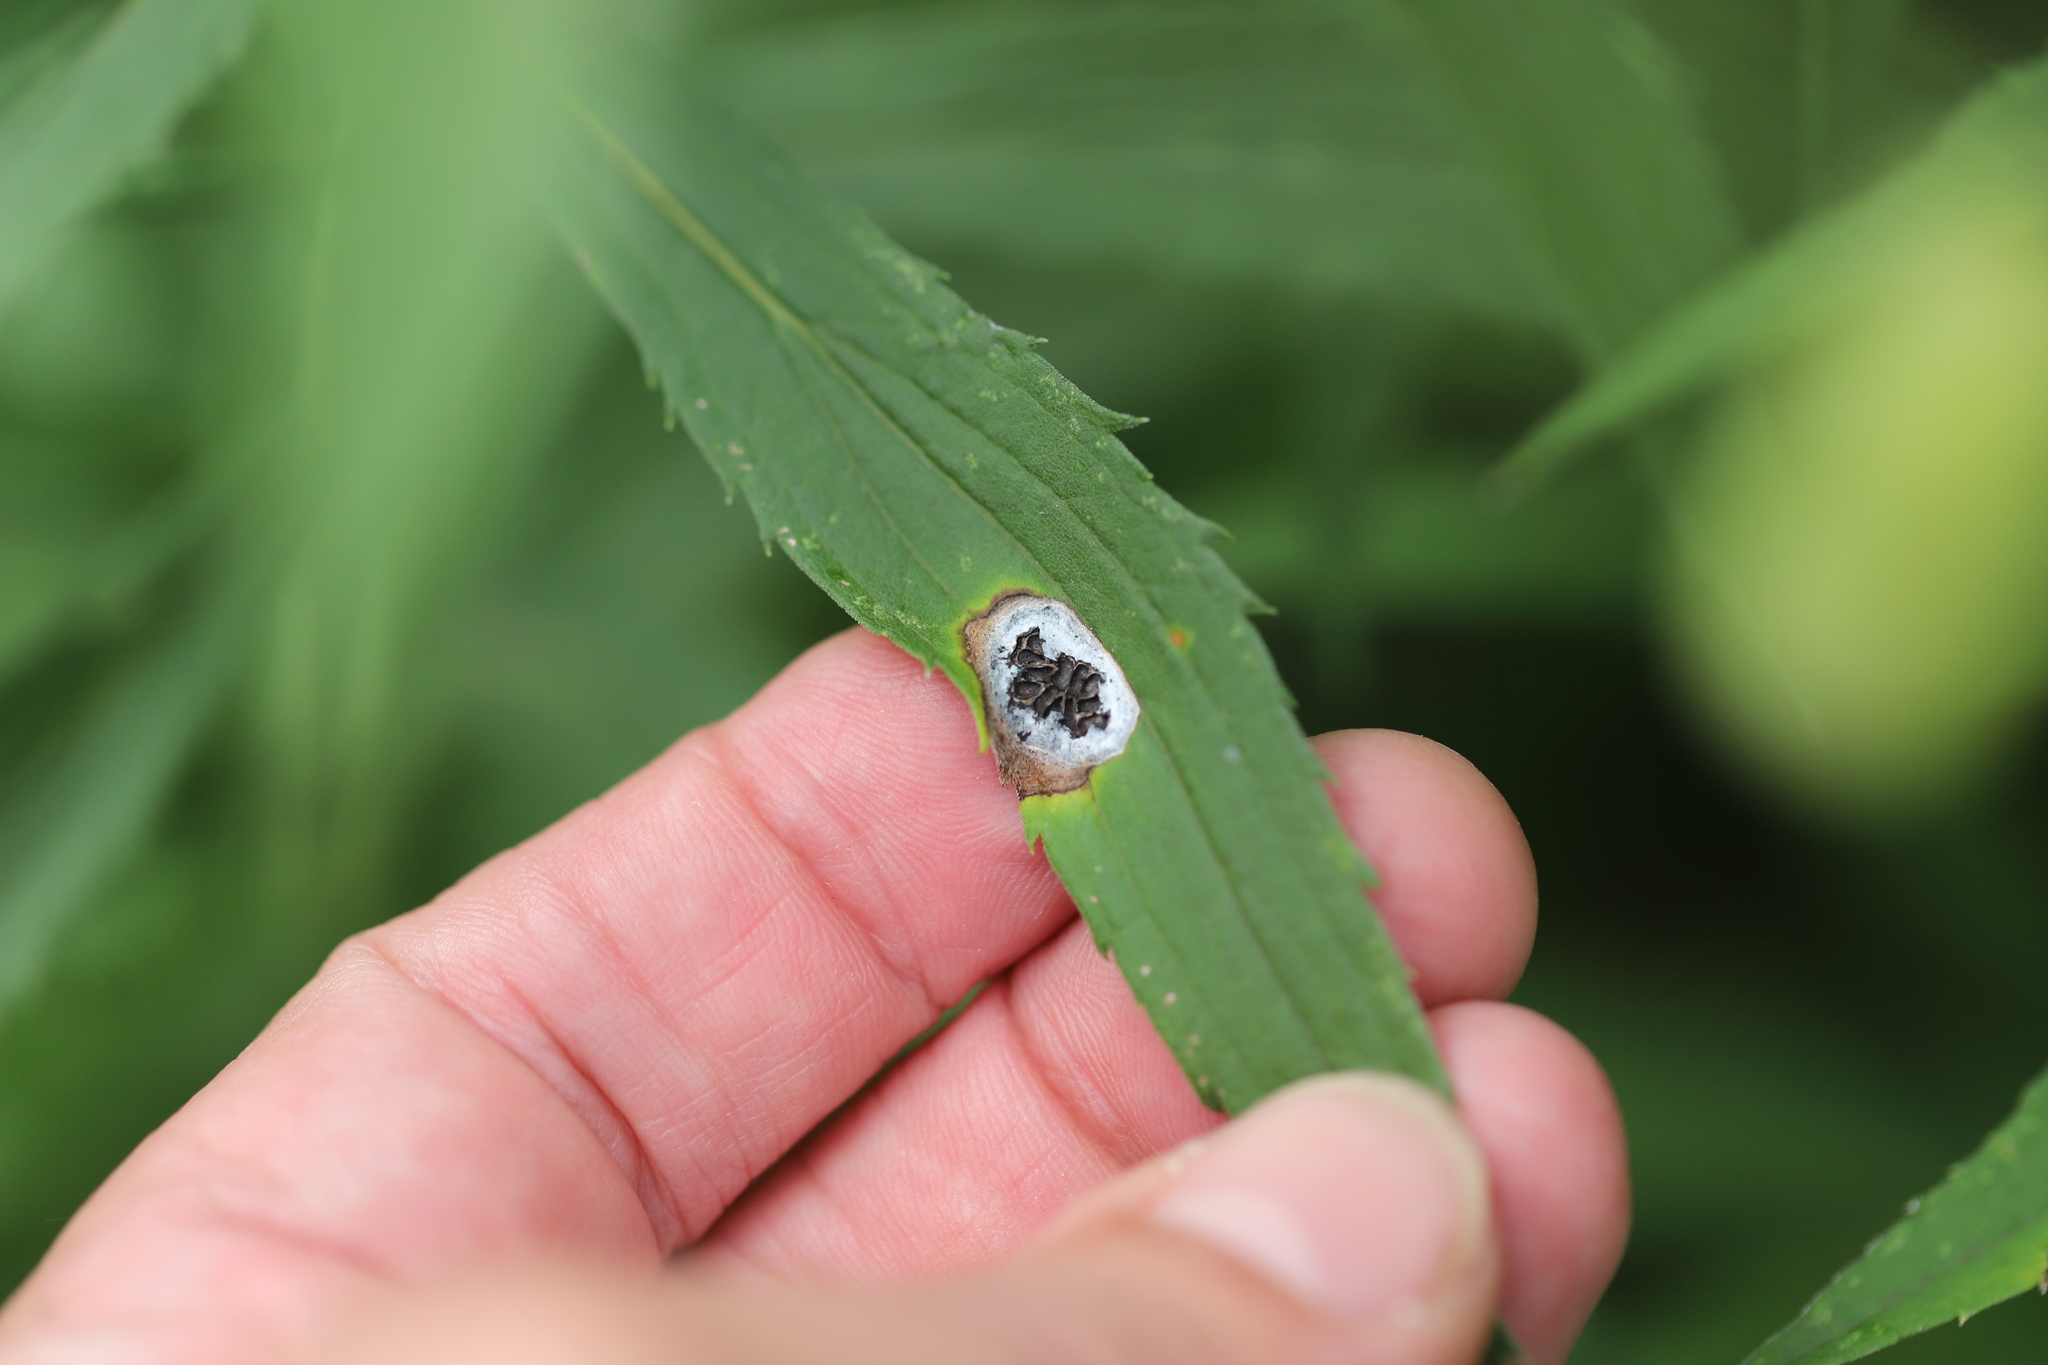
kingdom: Animalia
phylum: Arthropoda
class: Insecta
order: Diptera
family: Cecidomyiidae
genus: Asteromyia
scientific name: Asteromyia carbonifera
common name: Carbonifera goldenrod gall midge
